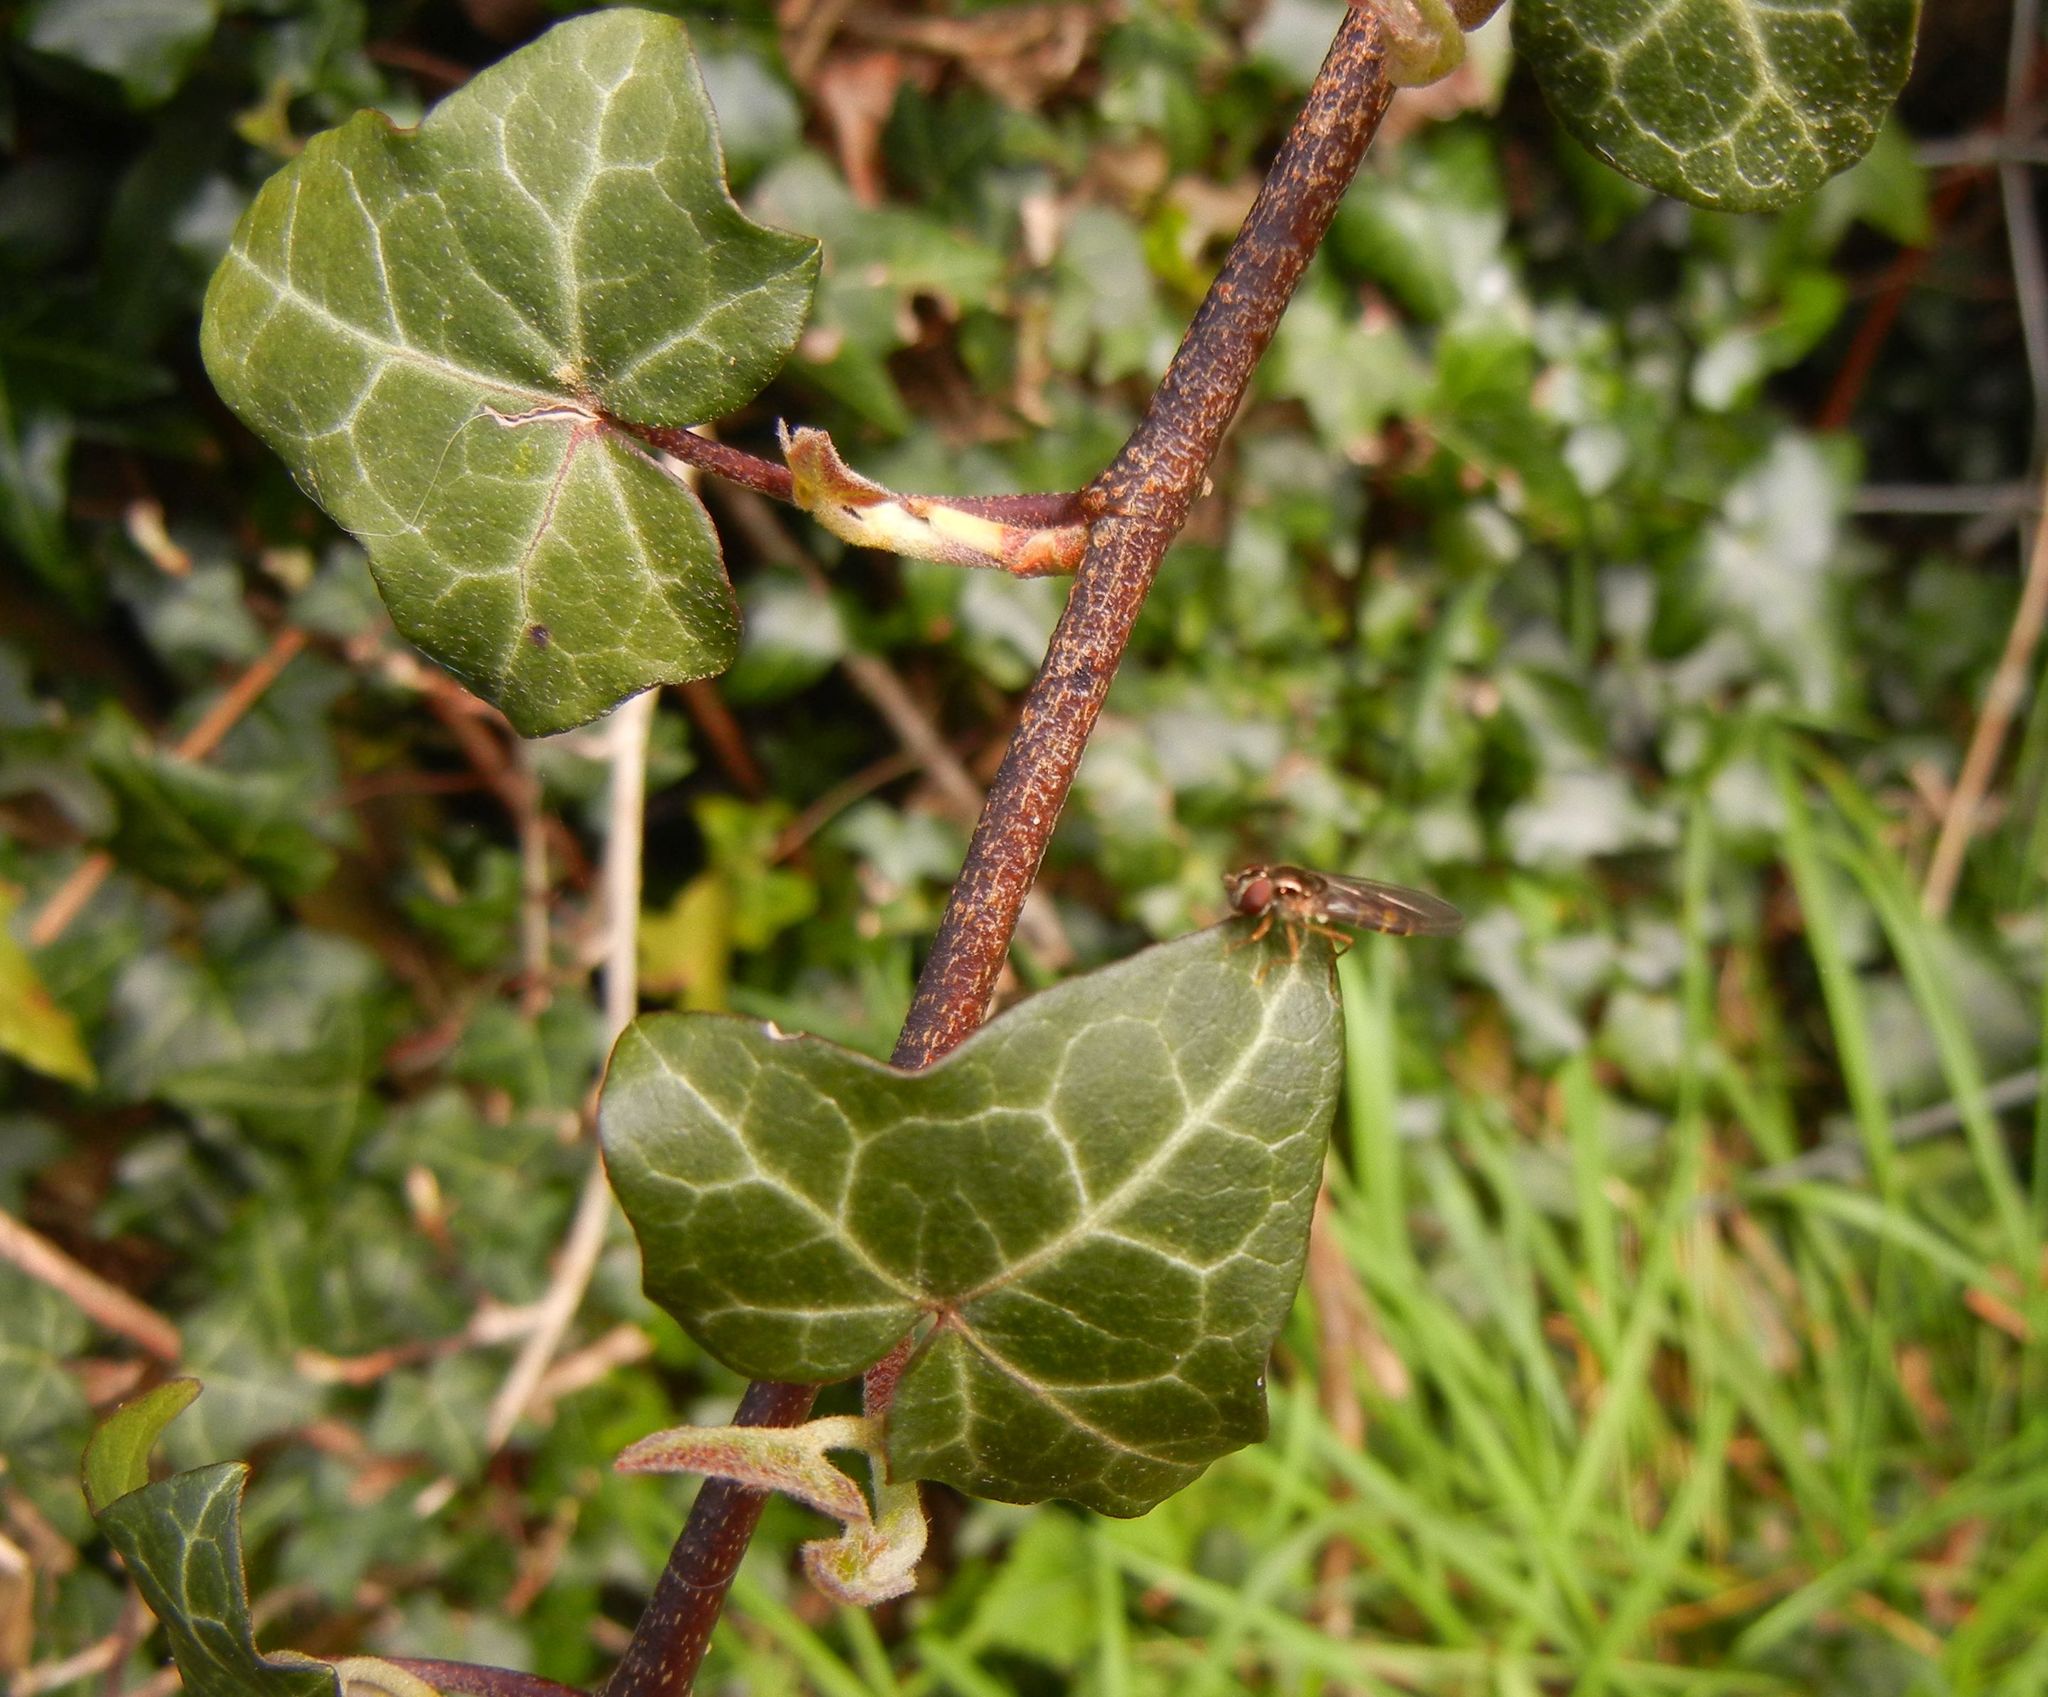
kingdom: Plantae
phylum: Tracheophyta
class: Magnoliopsida
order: Apiales
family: Araliaceae
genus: Hedera
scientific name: Hedera helix
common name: Ivy
